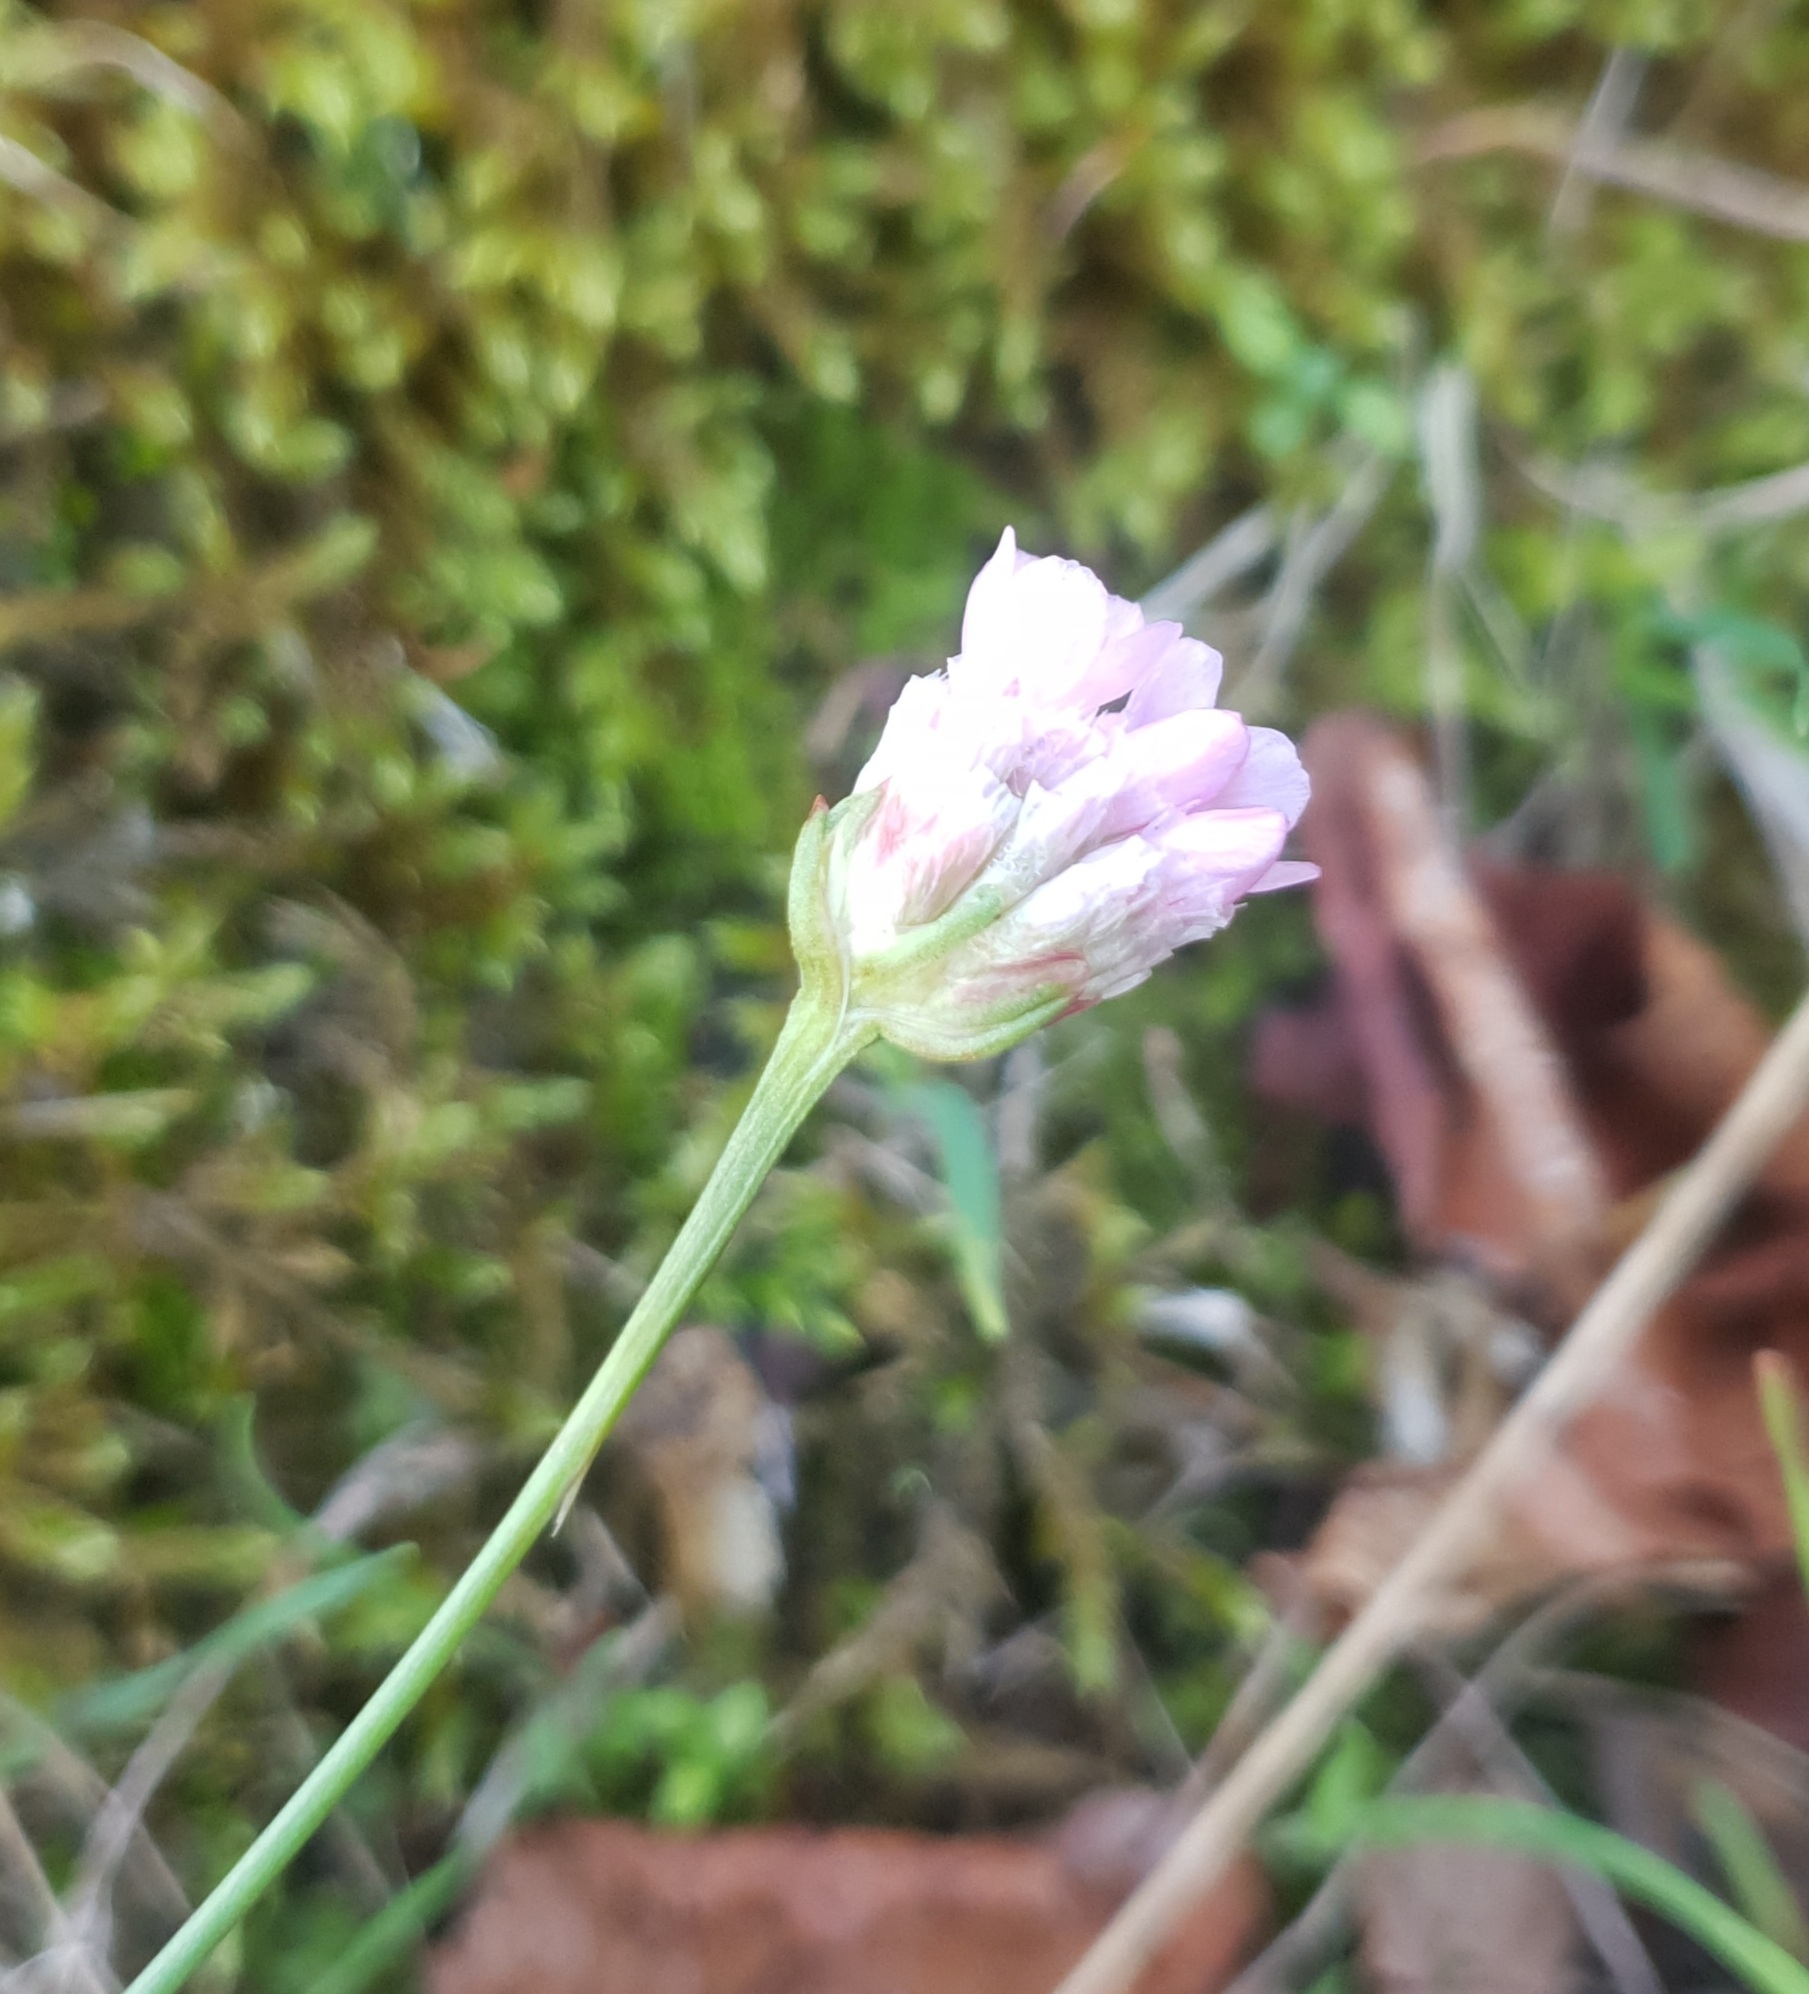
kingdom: Plantae
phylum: Tracheophyta
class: Magnoliopsida
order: Caryophyllales
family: Plumbaginaceae
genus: Armeria
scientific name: Armeria maritima
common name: Thrift
